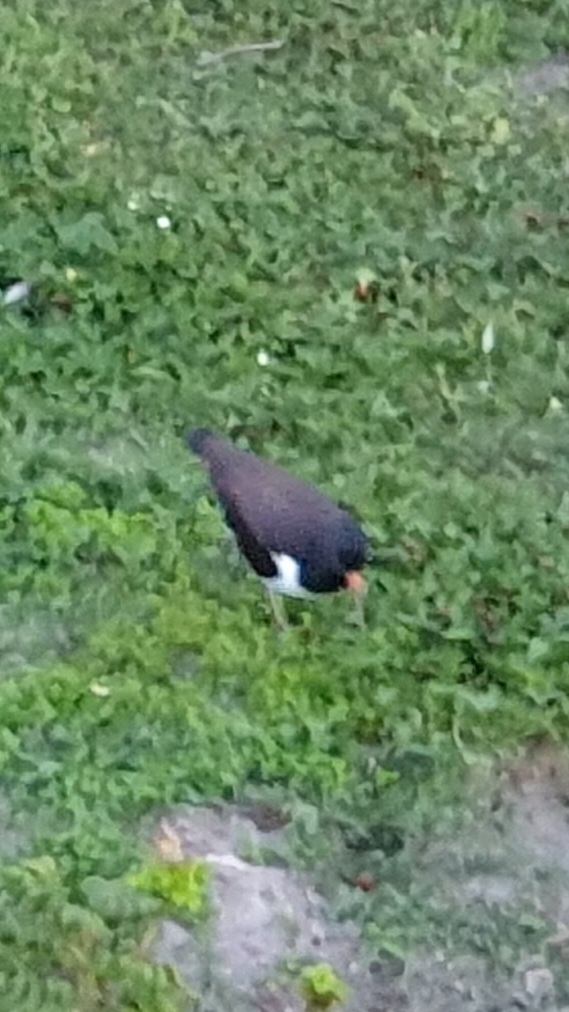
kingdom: Animalia
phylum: Chordata
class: Aves
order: Charadriiformes
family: Haematopodidae
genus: Haematopus
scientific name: Haematopus ostralegus
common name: Eurasian oystercatcher
